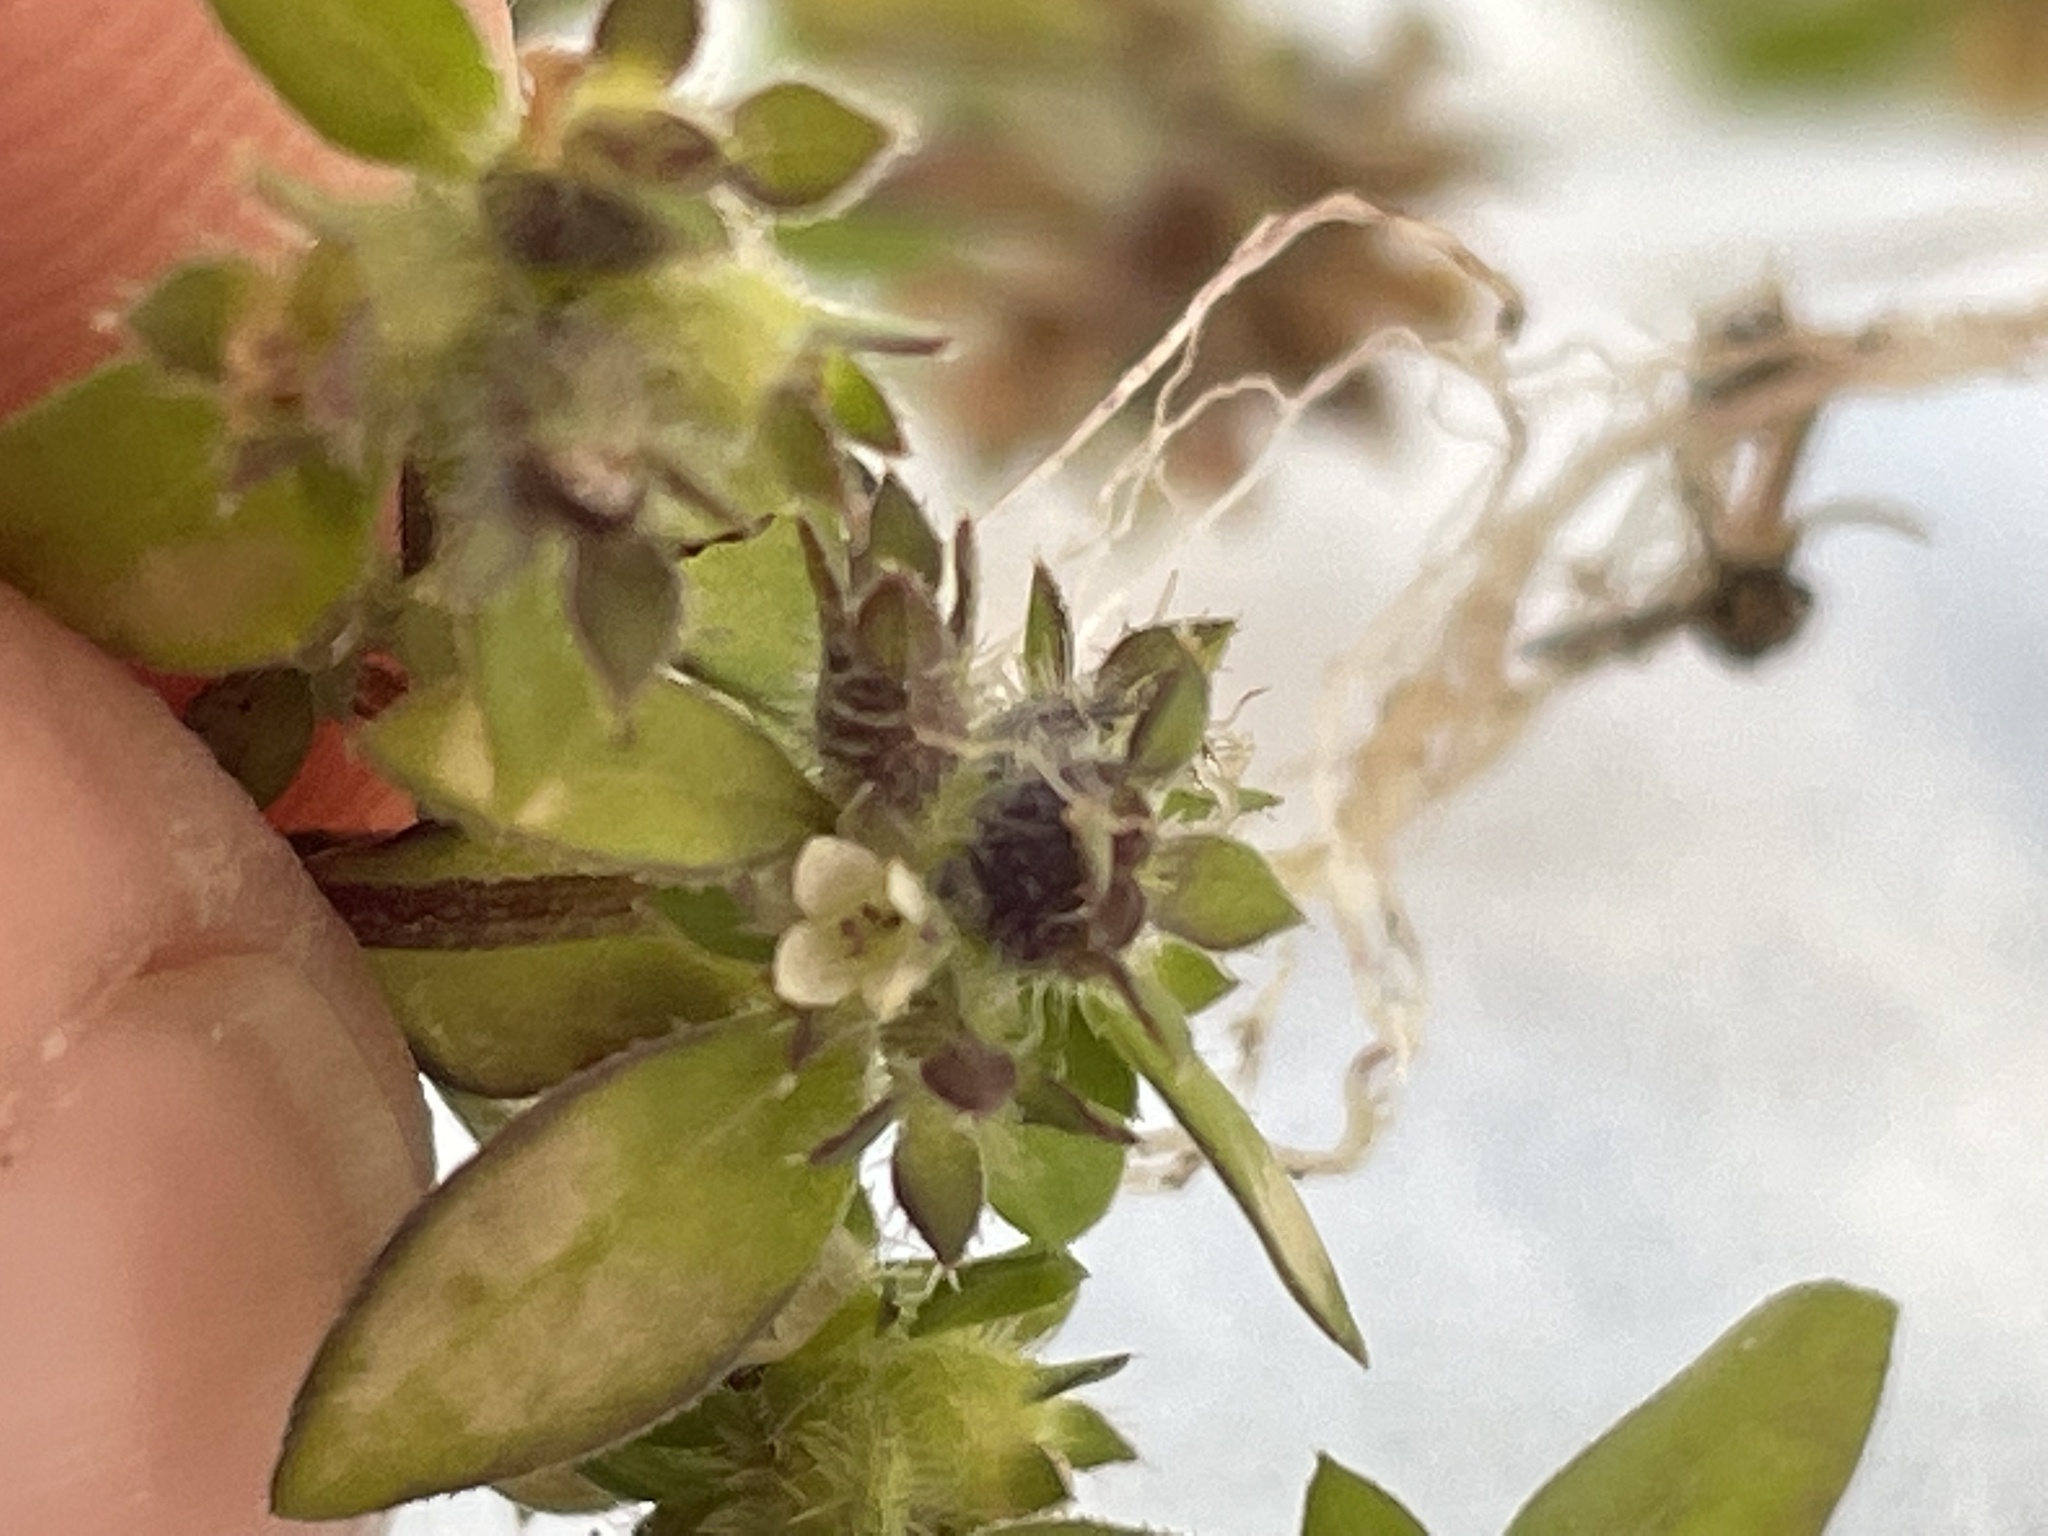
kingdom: Plantae
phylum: Tracheophyta
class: Magnoliopsida
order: Gentianales
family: Rubiaceae
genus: Edrastima
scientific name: Edrastima uniflora
